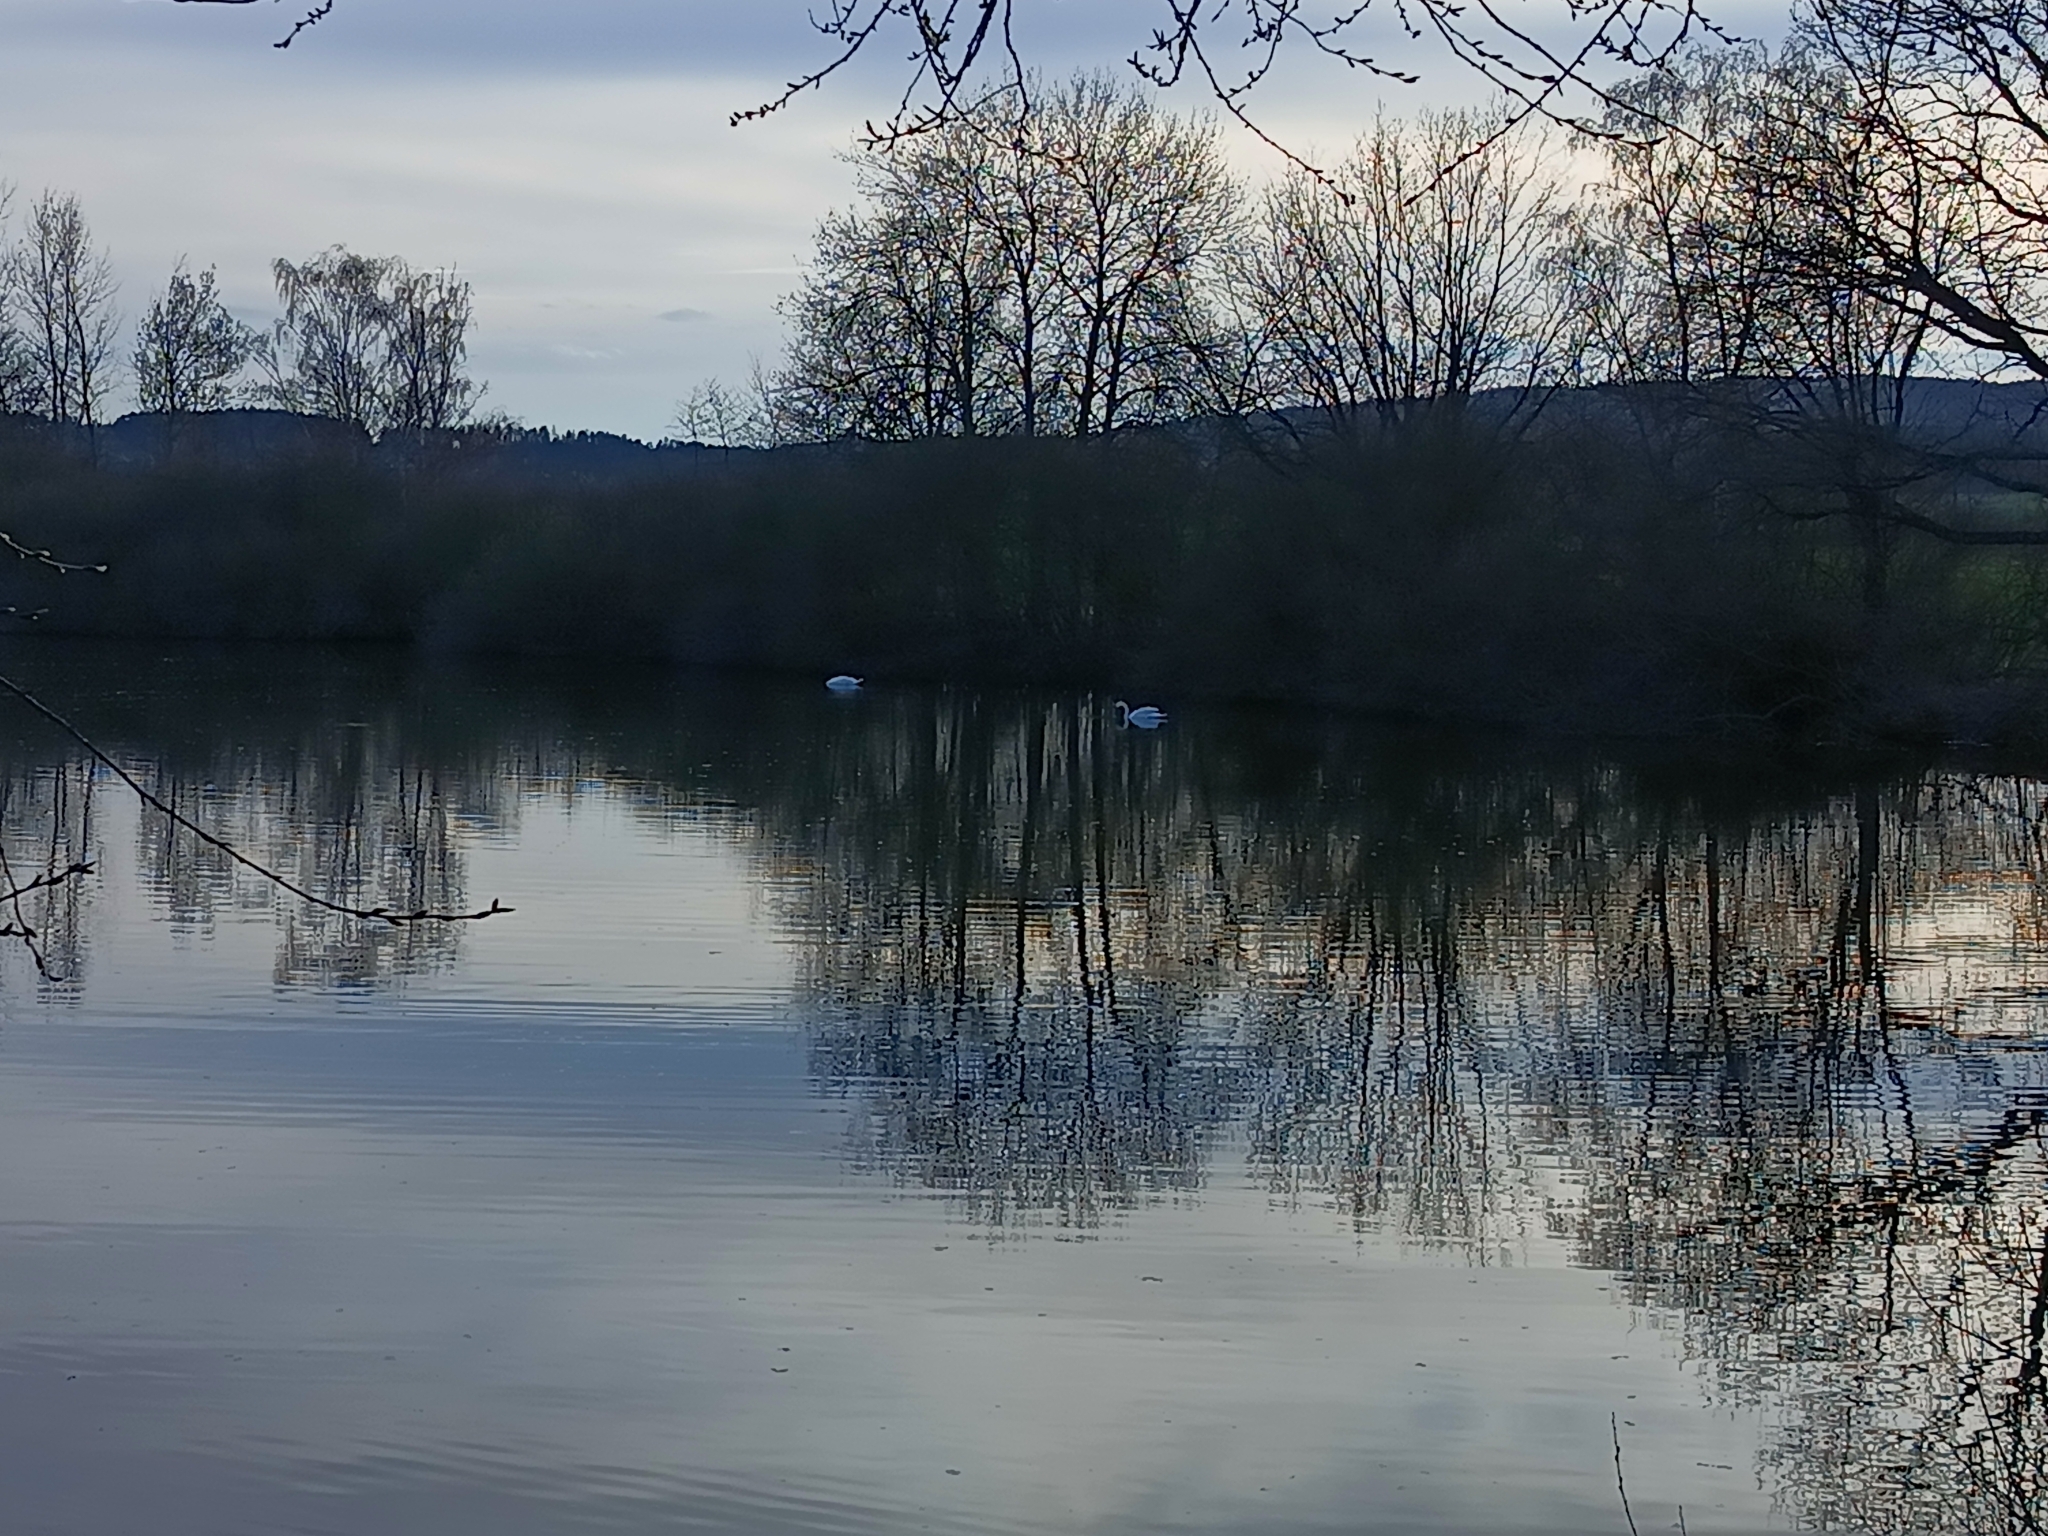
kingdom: Animalia
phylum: Chordata
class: Aves
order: Anseriformes
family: Anatidae
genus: Cygnus
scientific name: Cygnus olor
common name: Mute swan
